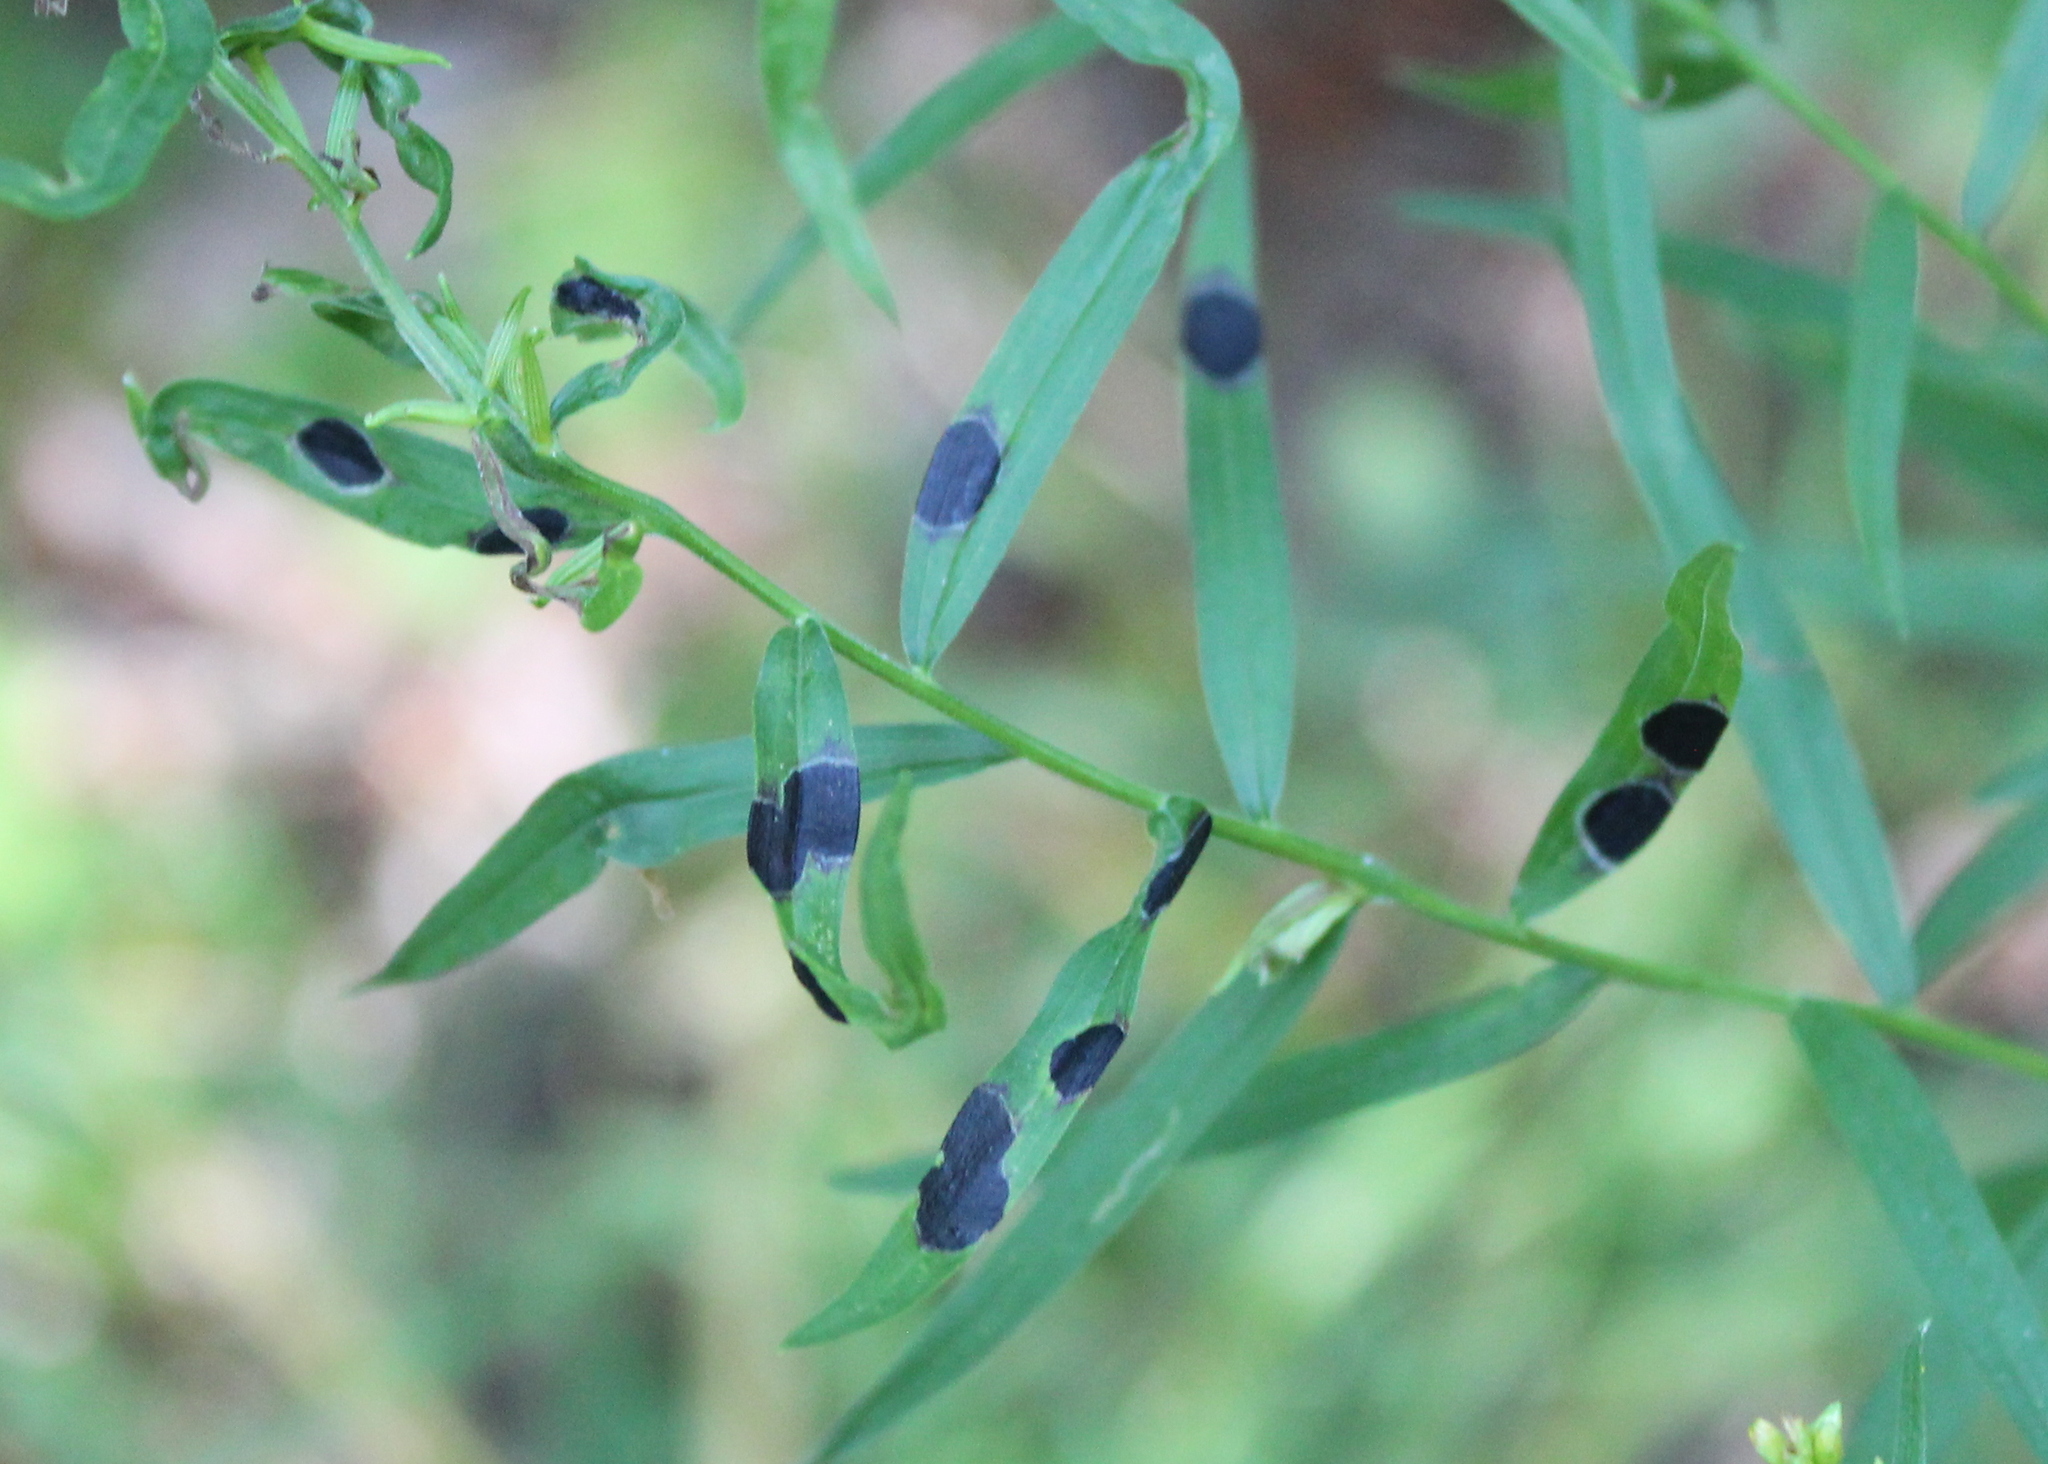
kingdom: Animalia
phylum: Arthropoda
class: Insecta
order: Diptera
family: Cecidomyiidae
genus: Asteromyia
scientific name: Asteromyia euthamiae
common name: Euthamia leaf gall midge
